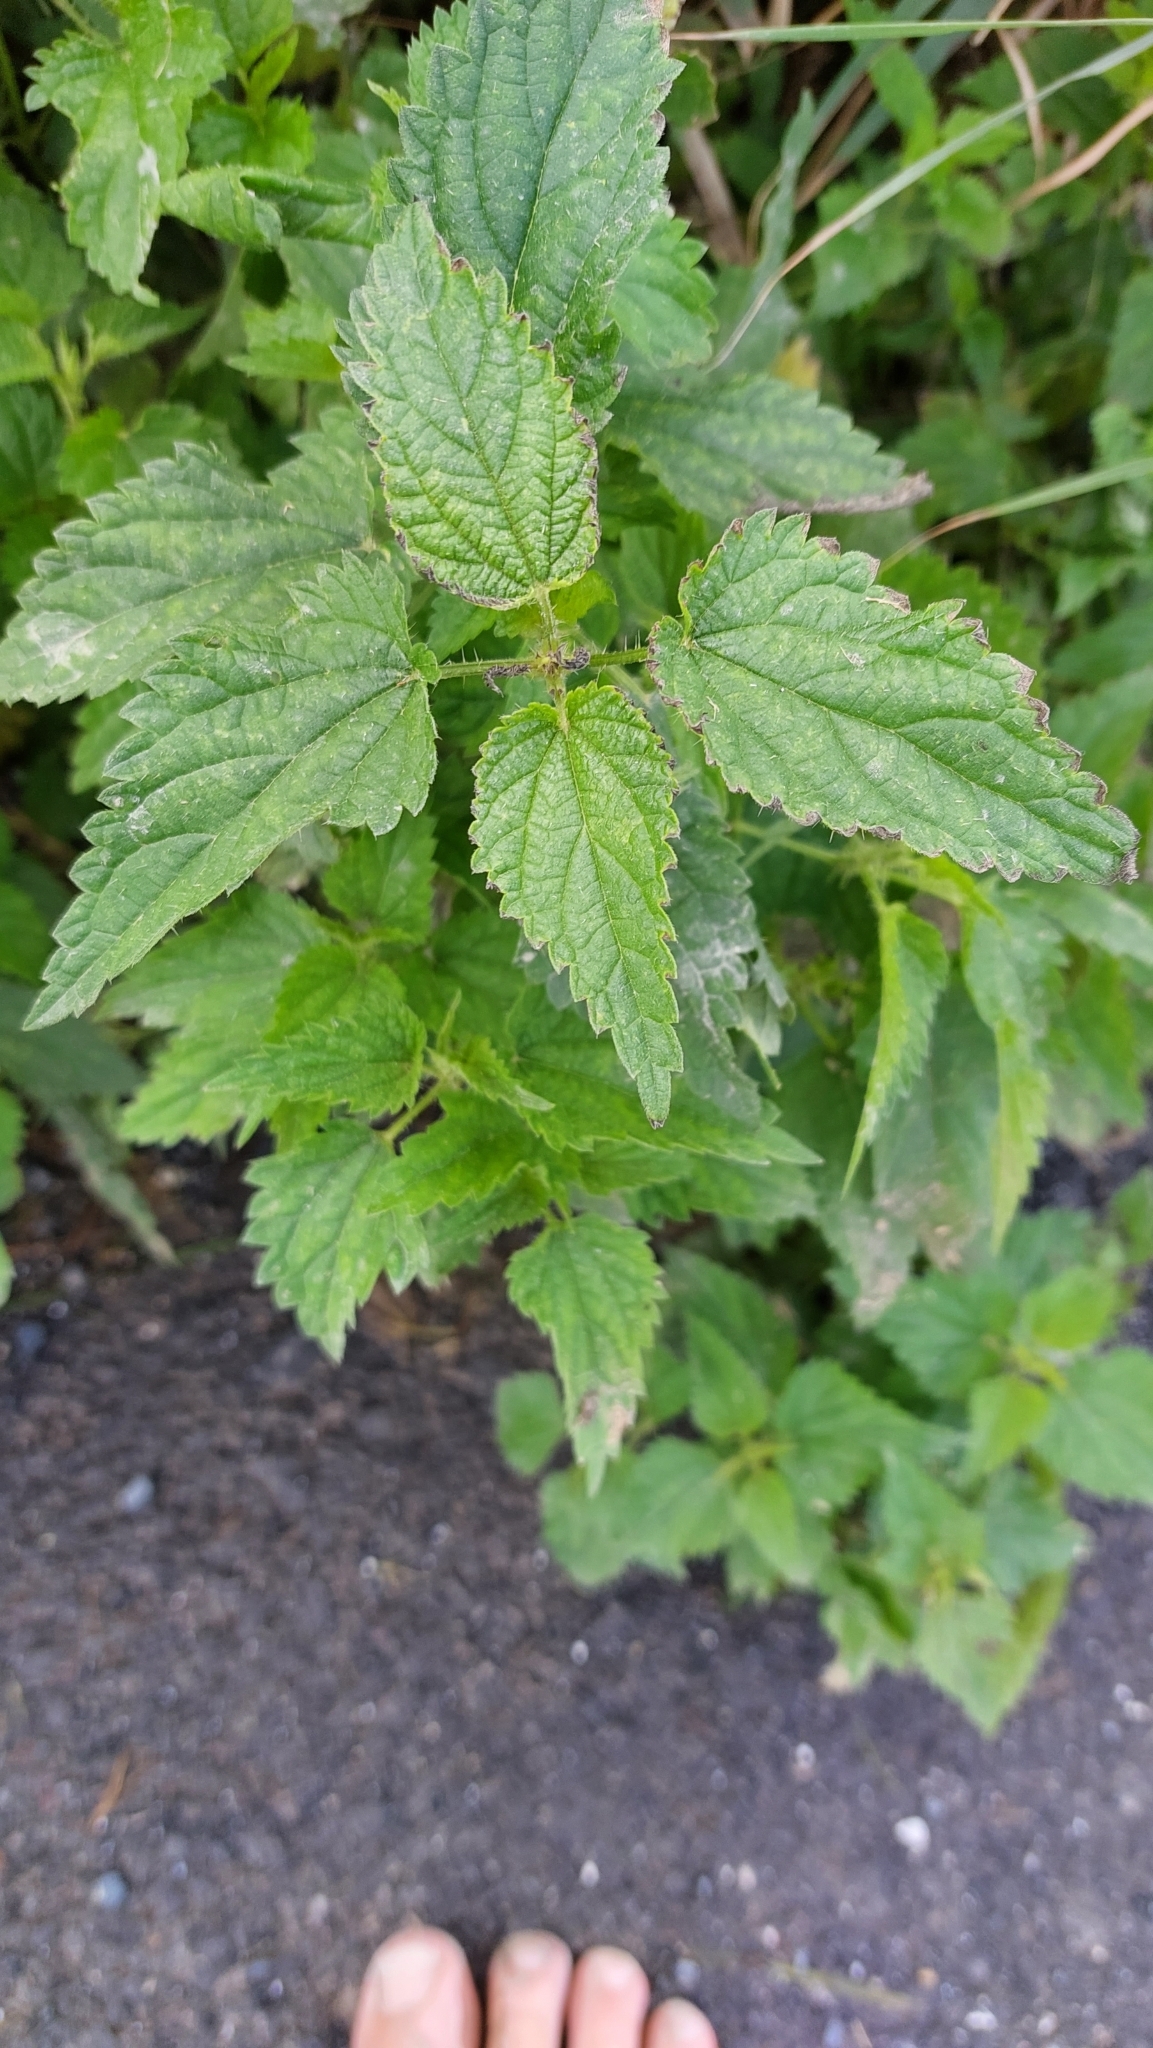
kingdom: Plantae
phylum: Tracheophyta
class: Magnoliopsida
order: Rosales
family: Urticaceae
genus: Urtica
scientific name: Urtica dioica
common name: Common nettle
